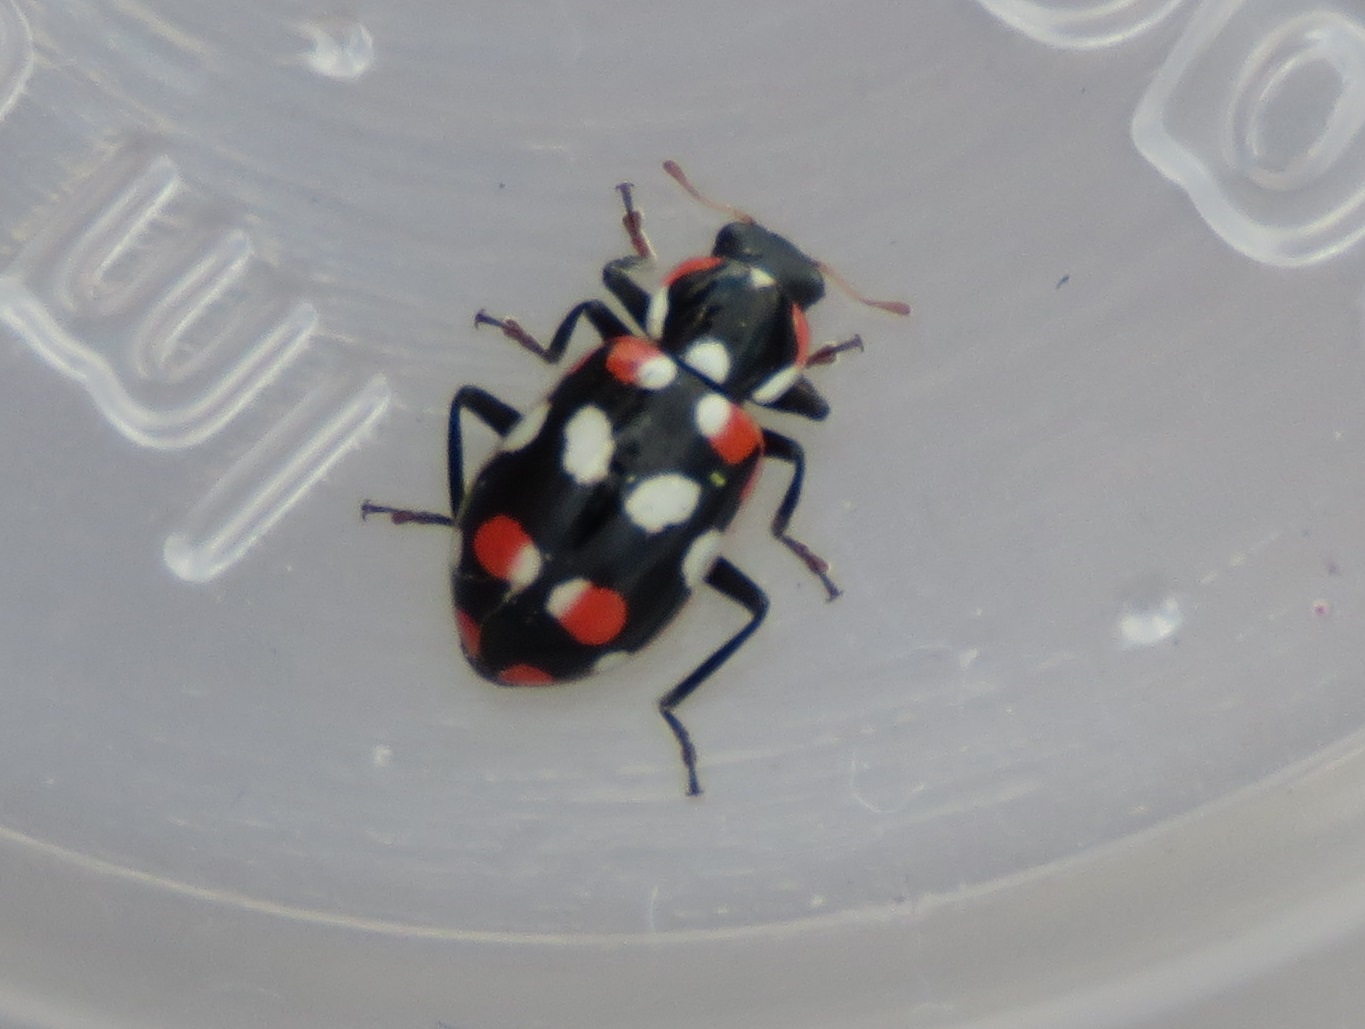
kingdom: Animalia
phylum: Arthropoda
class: Insecta
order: Coleoptera
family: Coccinellidae
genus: Eriopis
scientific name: Eriopis connexa
